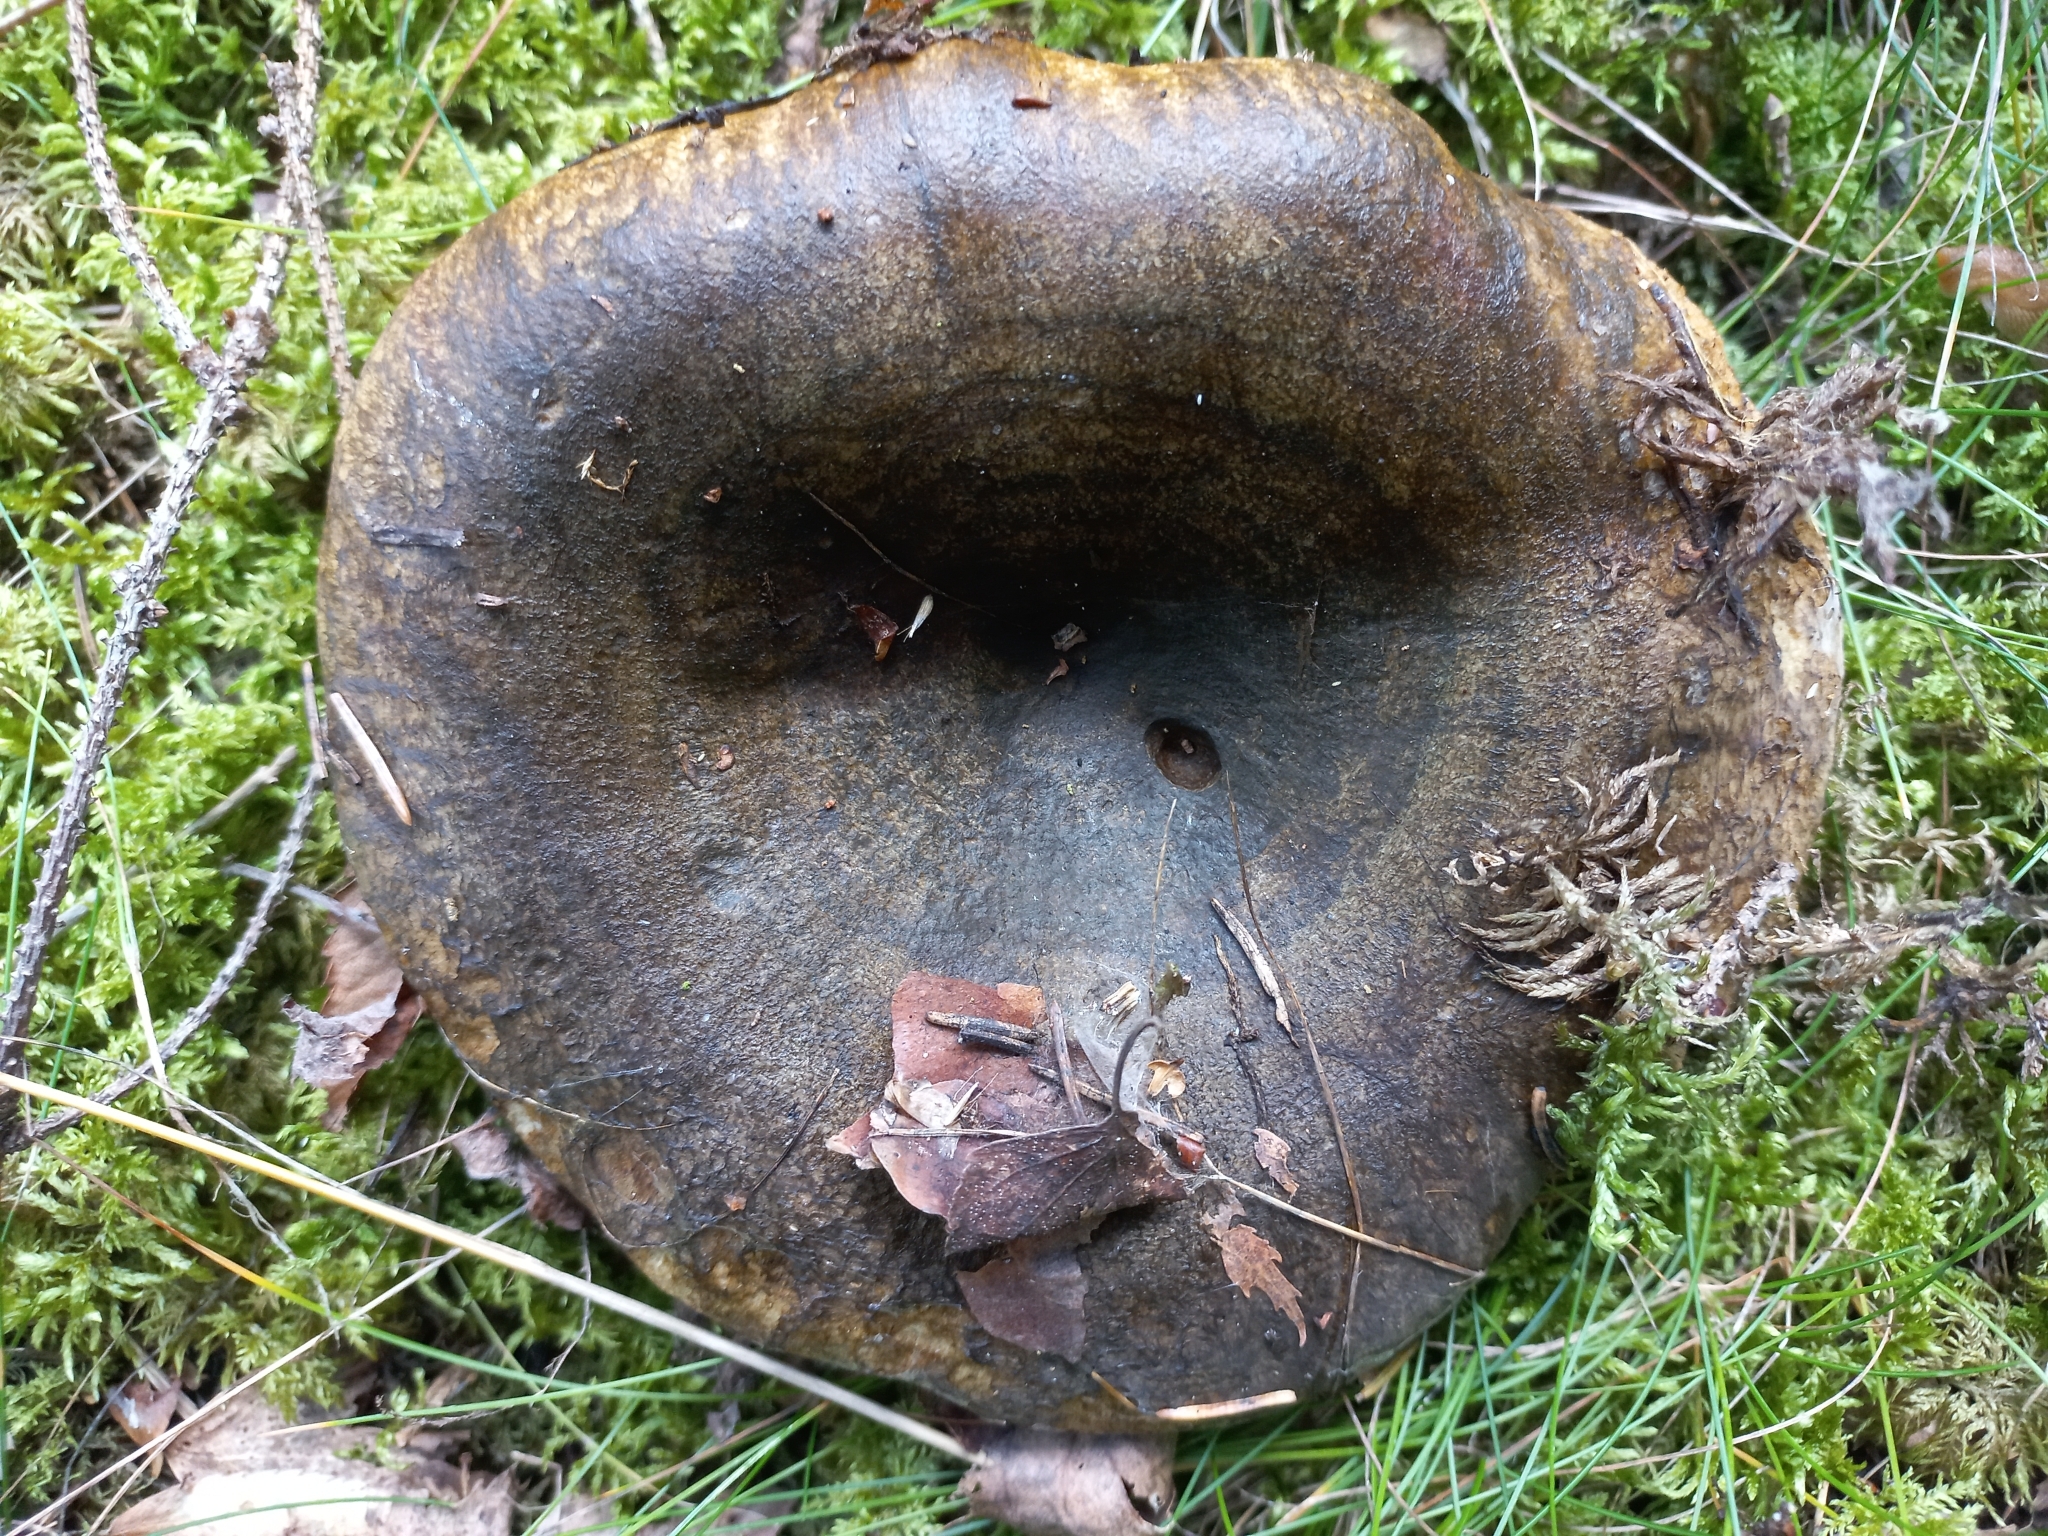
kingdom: Fungi
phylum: Basidiomycota
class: Agaricomycetes
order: Russulales
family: Russulaceae
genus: Lactarius
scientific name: Lactarius turpis
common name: Ugly milk-cap
